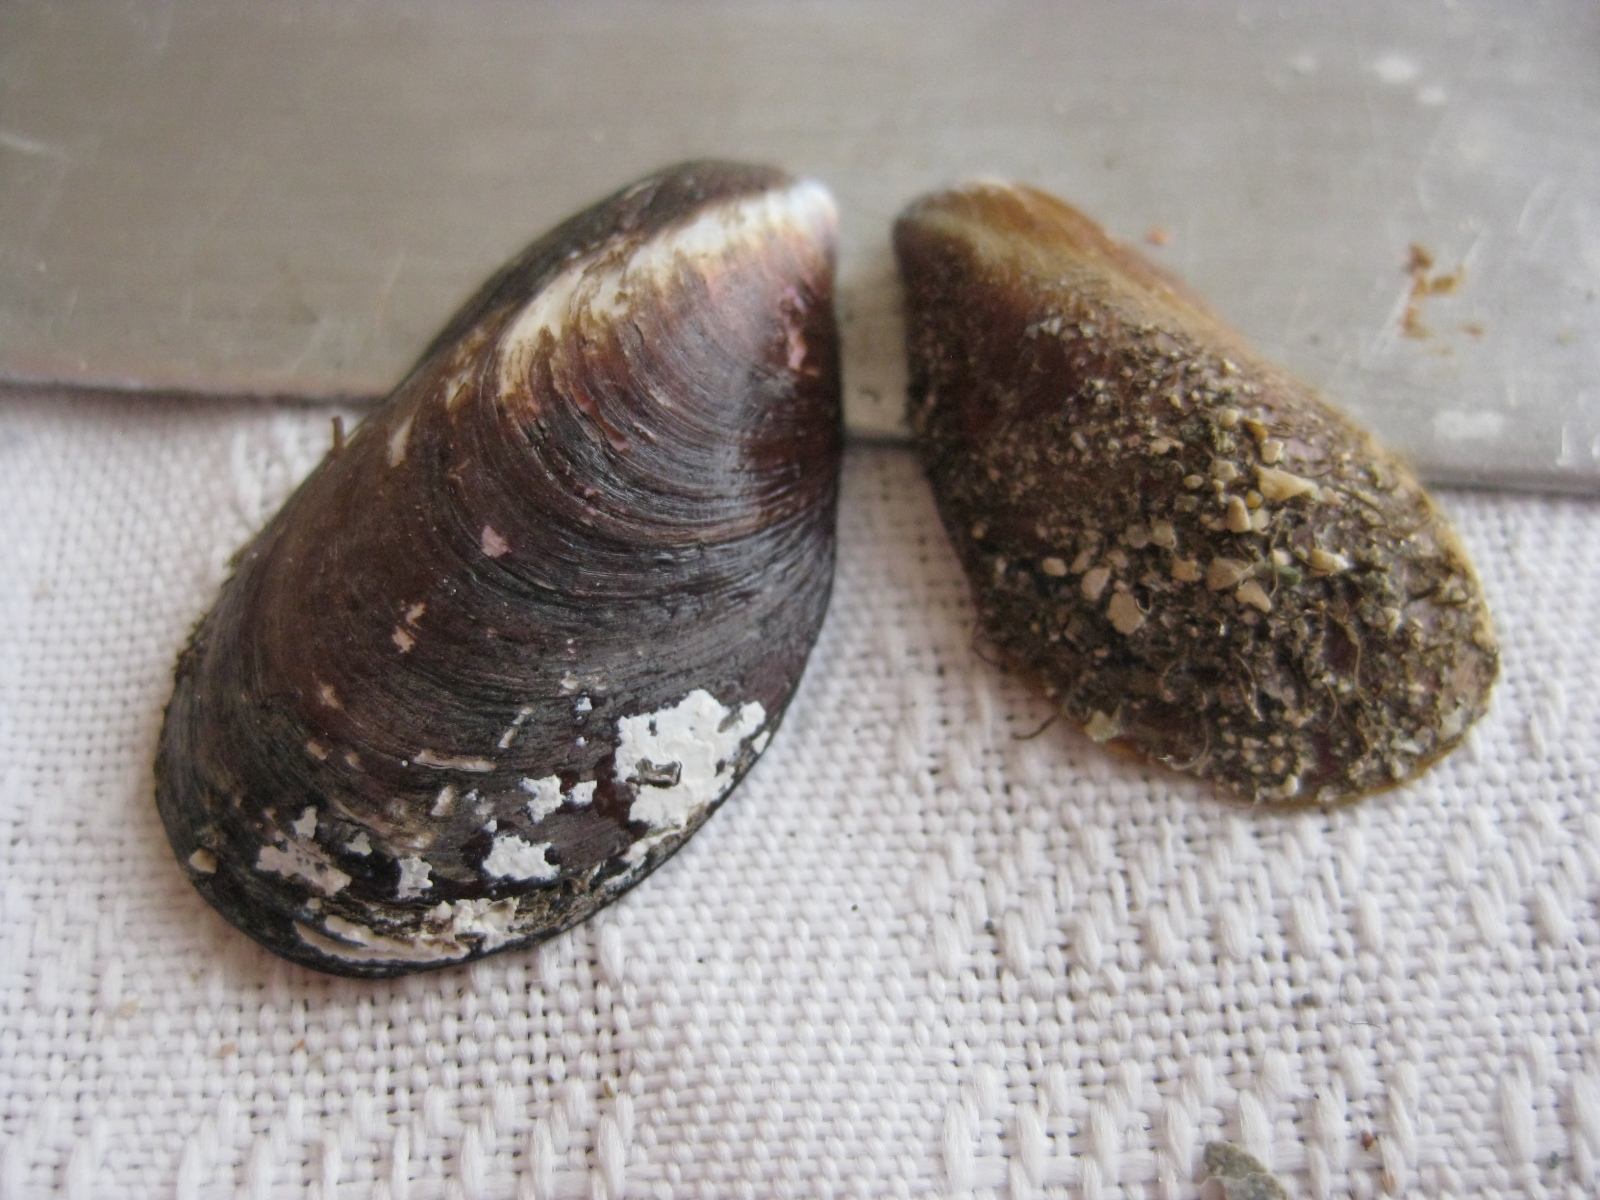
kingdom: Animalia
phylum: Mollusca
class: Bivalvia
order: Mytilida
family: Mytilidae
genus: Modiolus
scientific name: Modiolus areolatus
